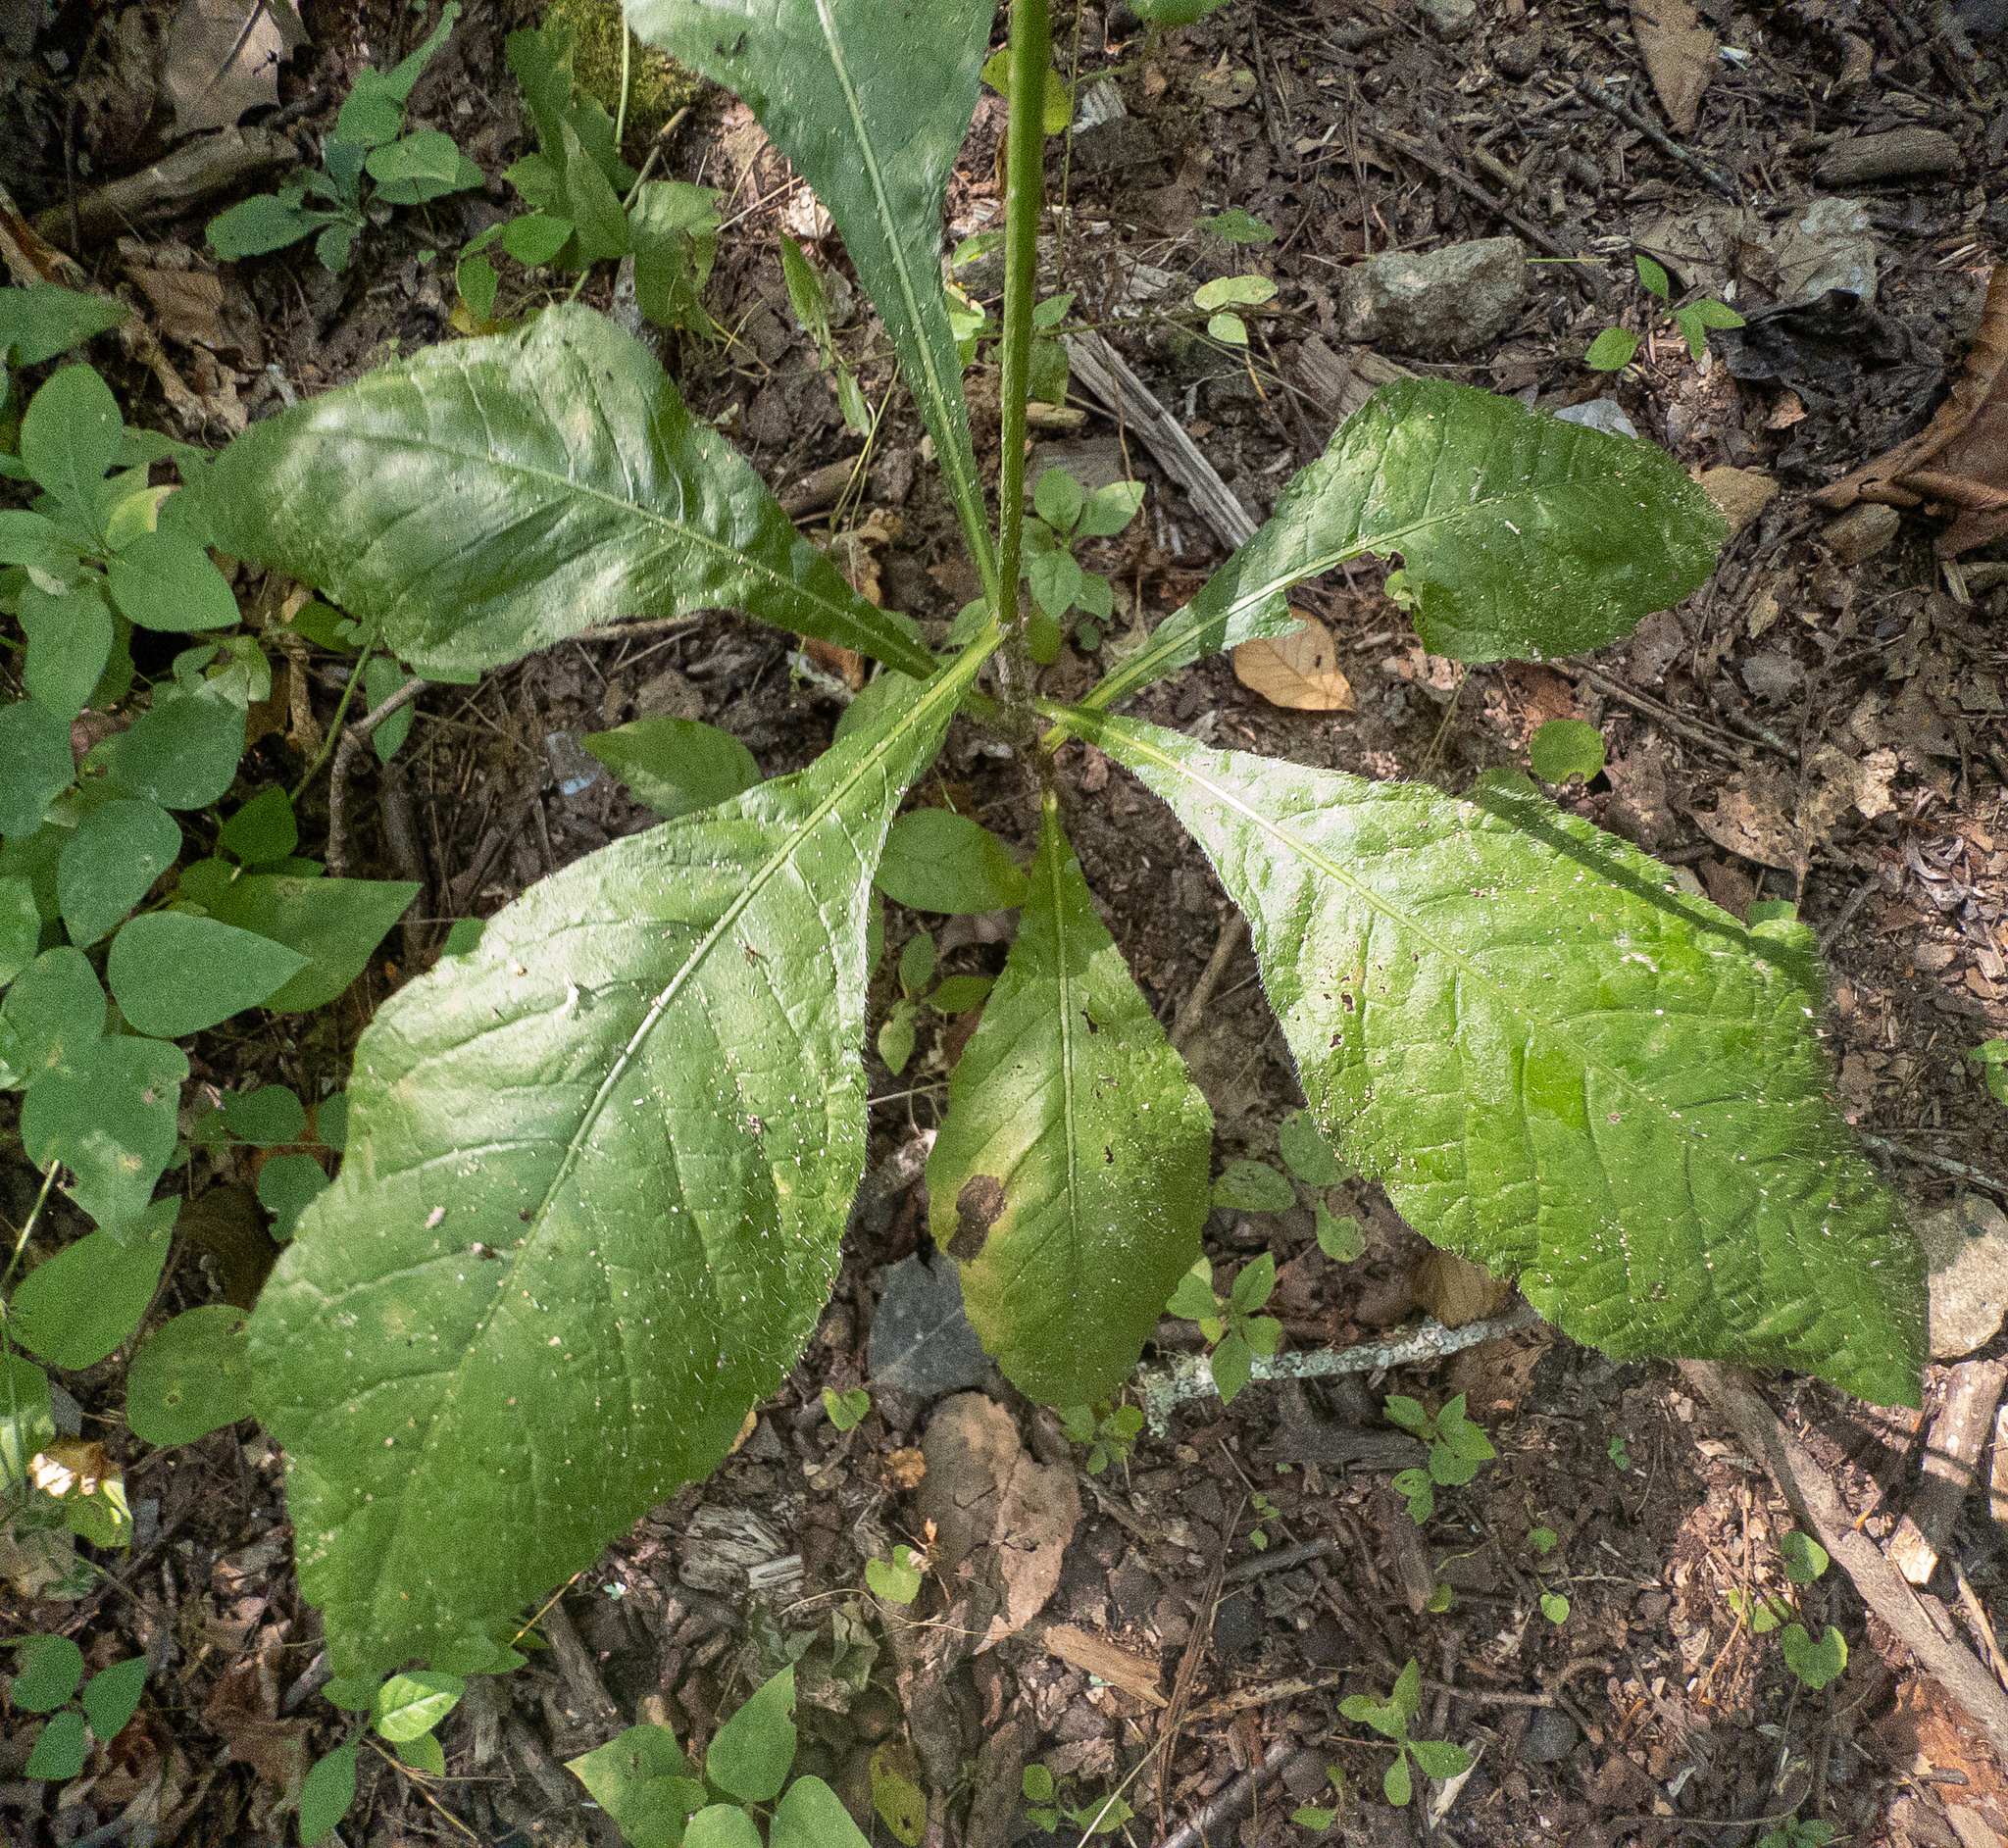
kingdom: Plantae
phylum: Tracheophyta
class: Magnoliopsida
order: Asterales
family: Asteraceae
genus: Elephantopus
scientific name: Elephantopus carolinianus
